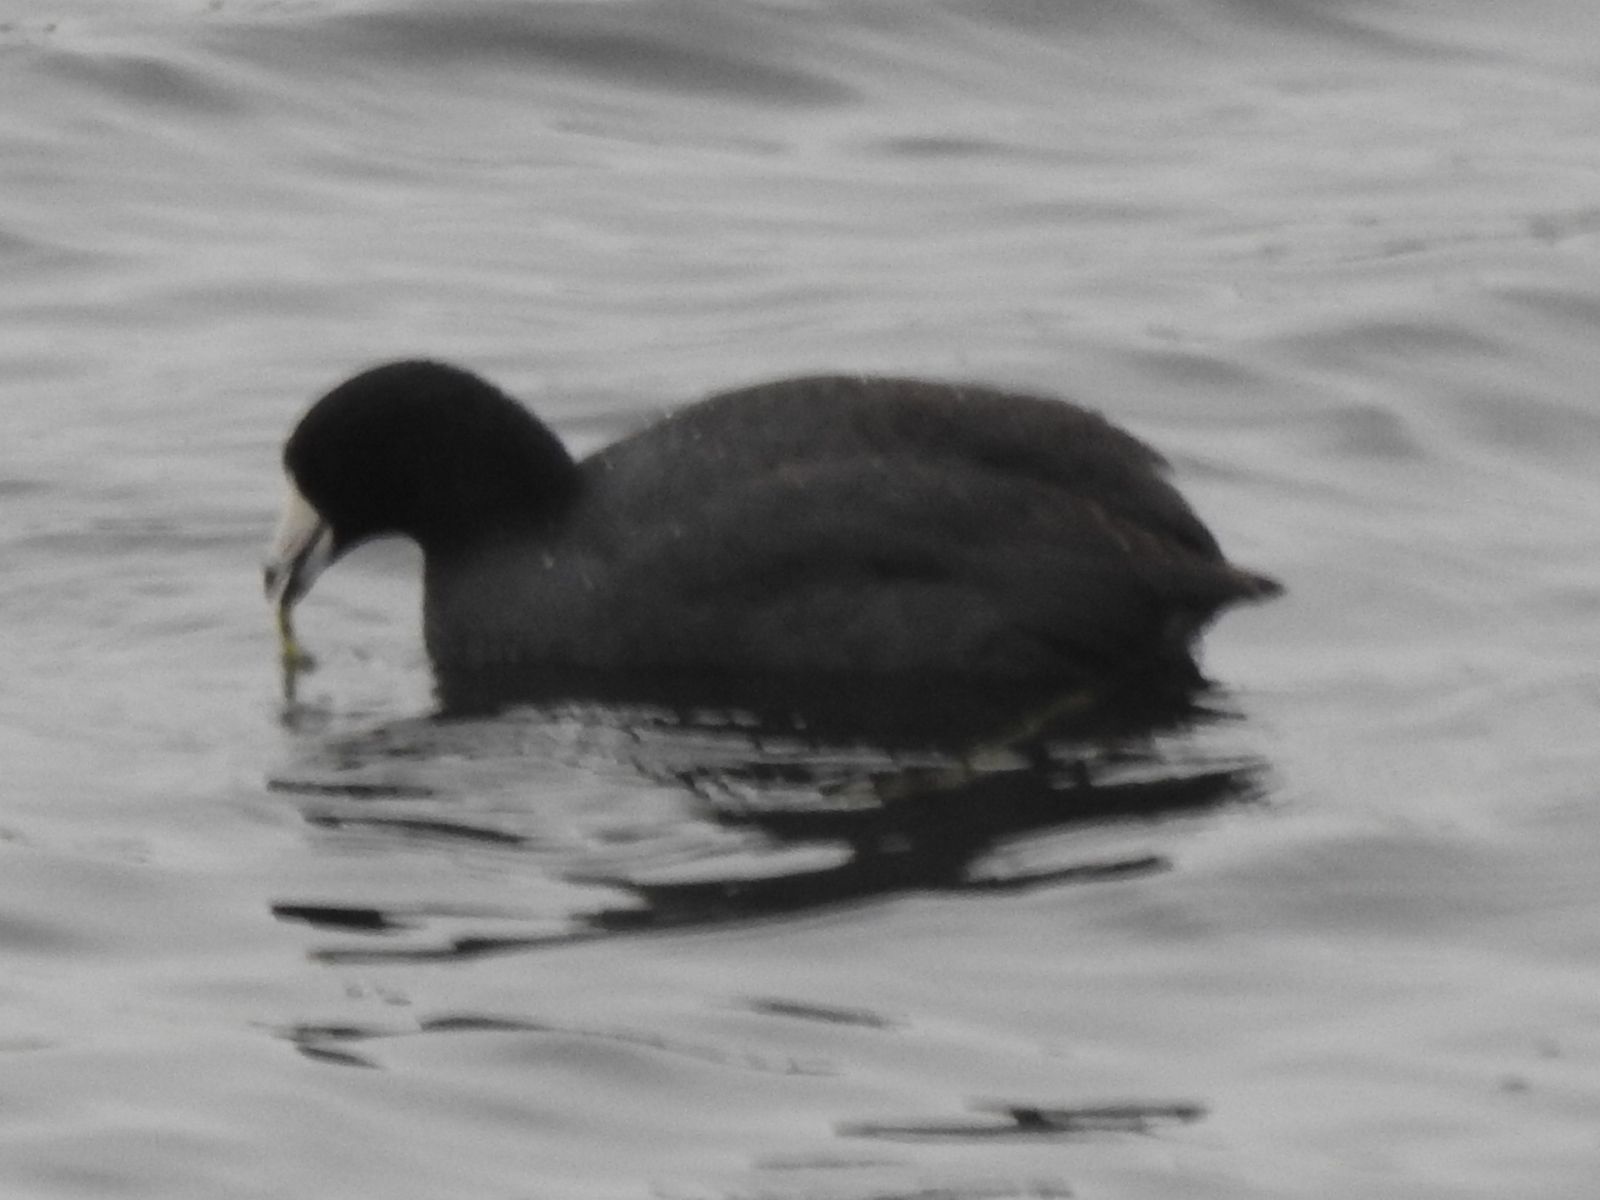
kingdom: Animalia
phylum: Chordata
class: Aves
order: Gruiformes
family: Rallidae
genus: Fulica
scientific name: Fulica americana
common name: American coot
